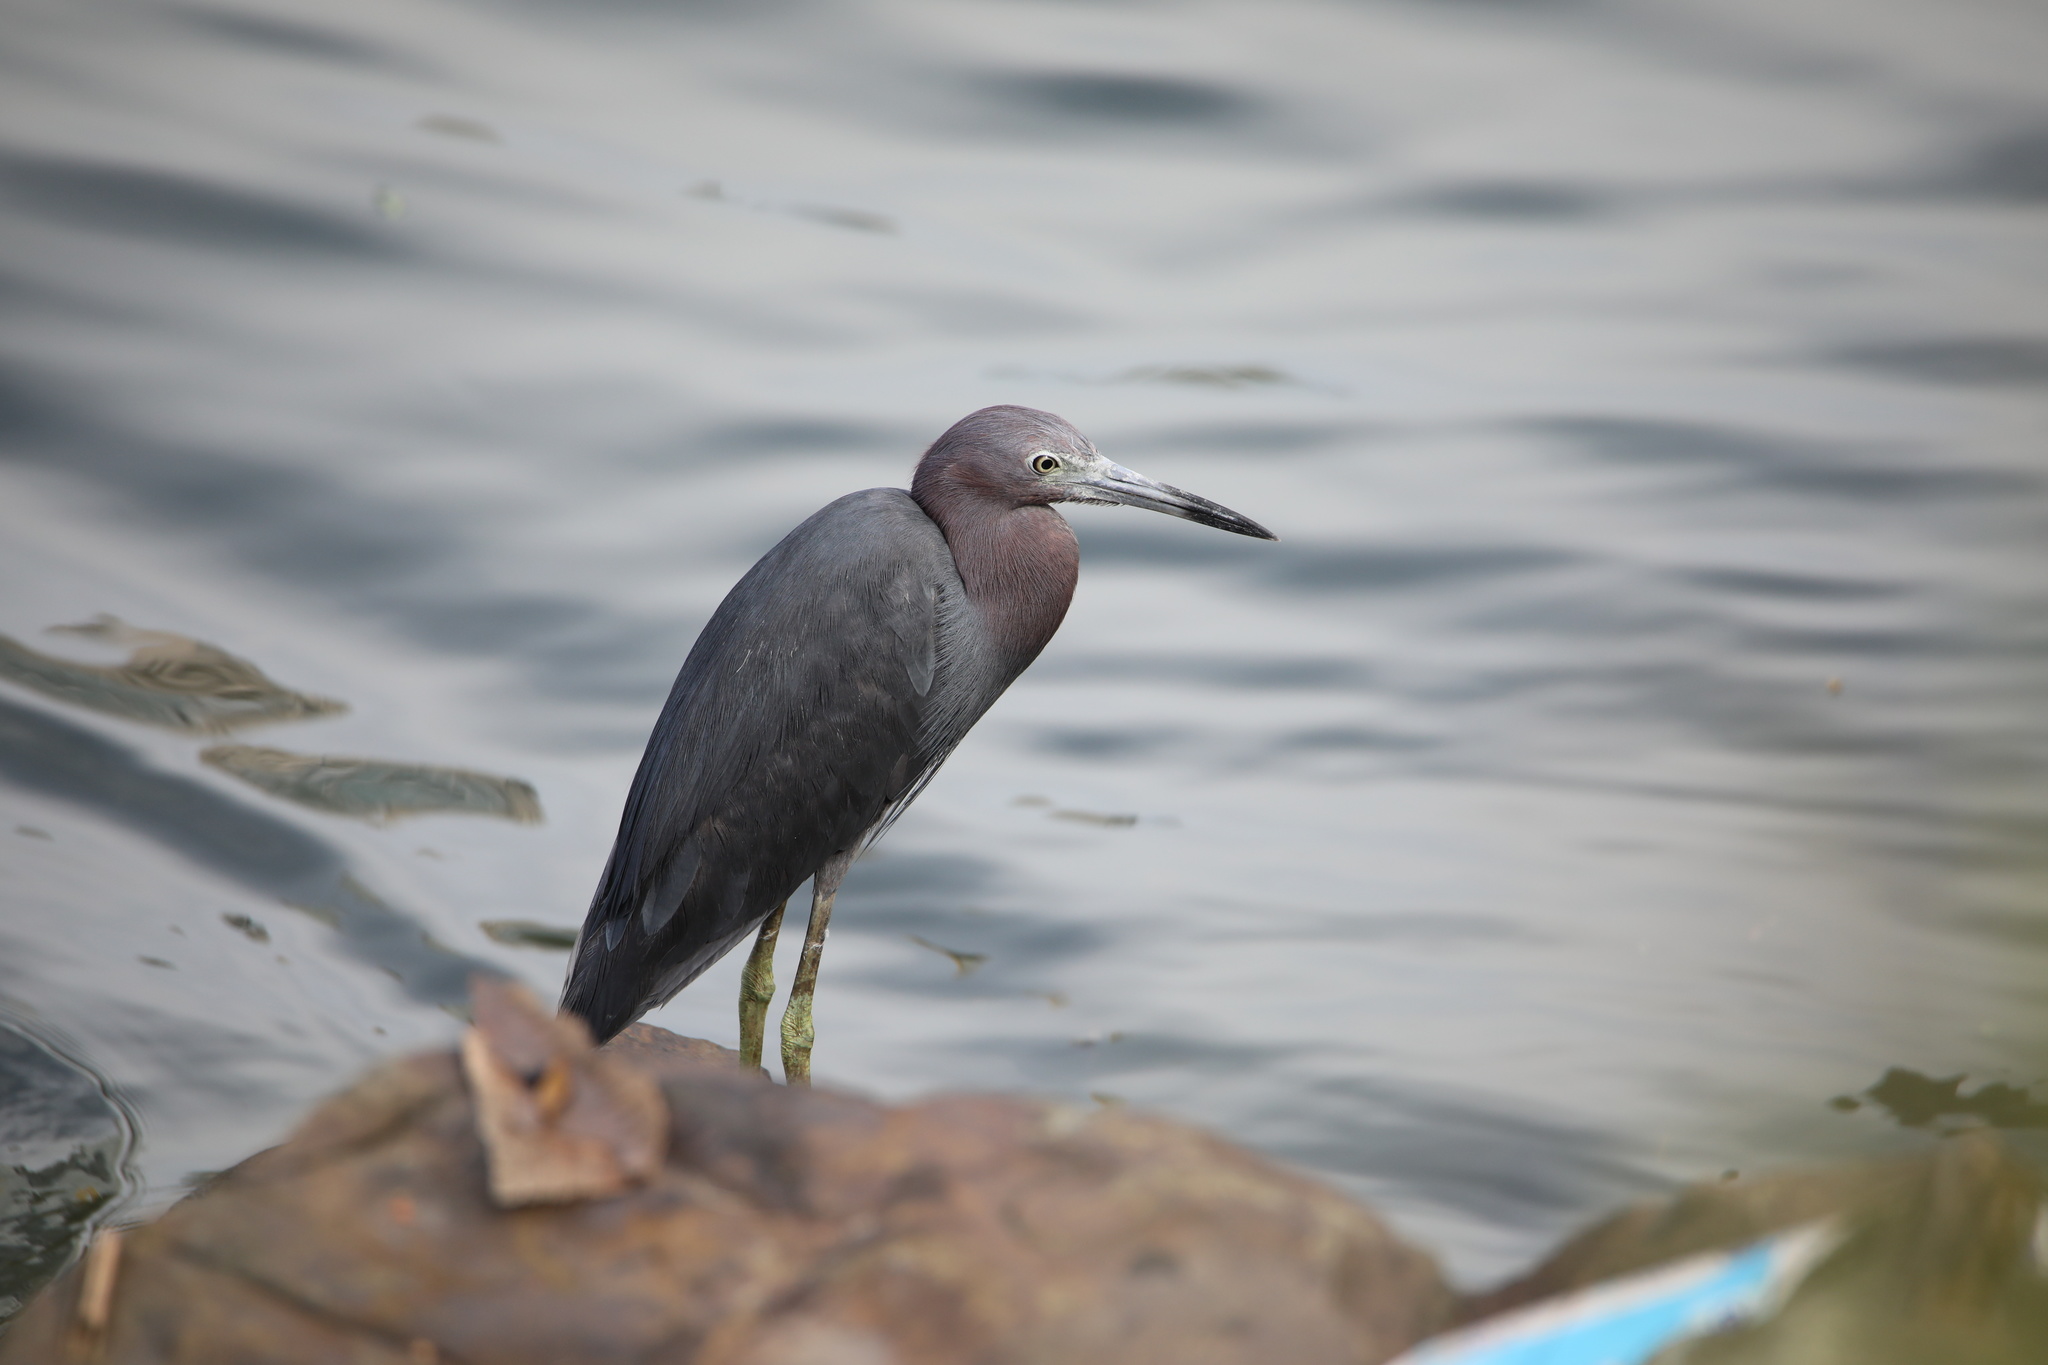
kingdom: Animalia
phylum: Chordata
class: Aves
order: Pelecaniformes
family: Ardeidae
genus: Egretta
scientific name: Egretta caerulea
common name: Little blue heron
